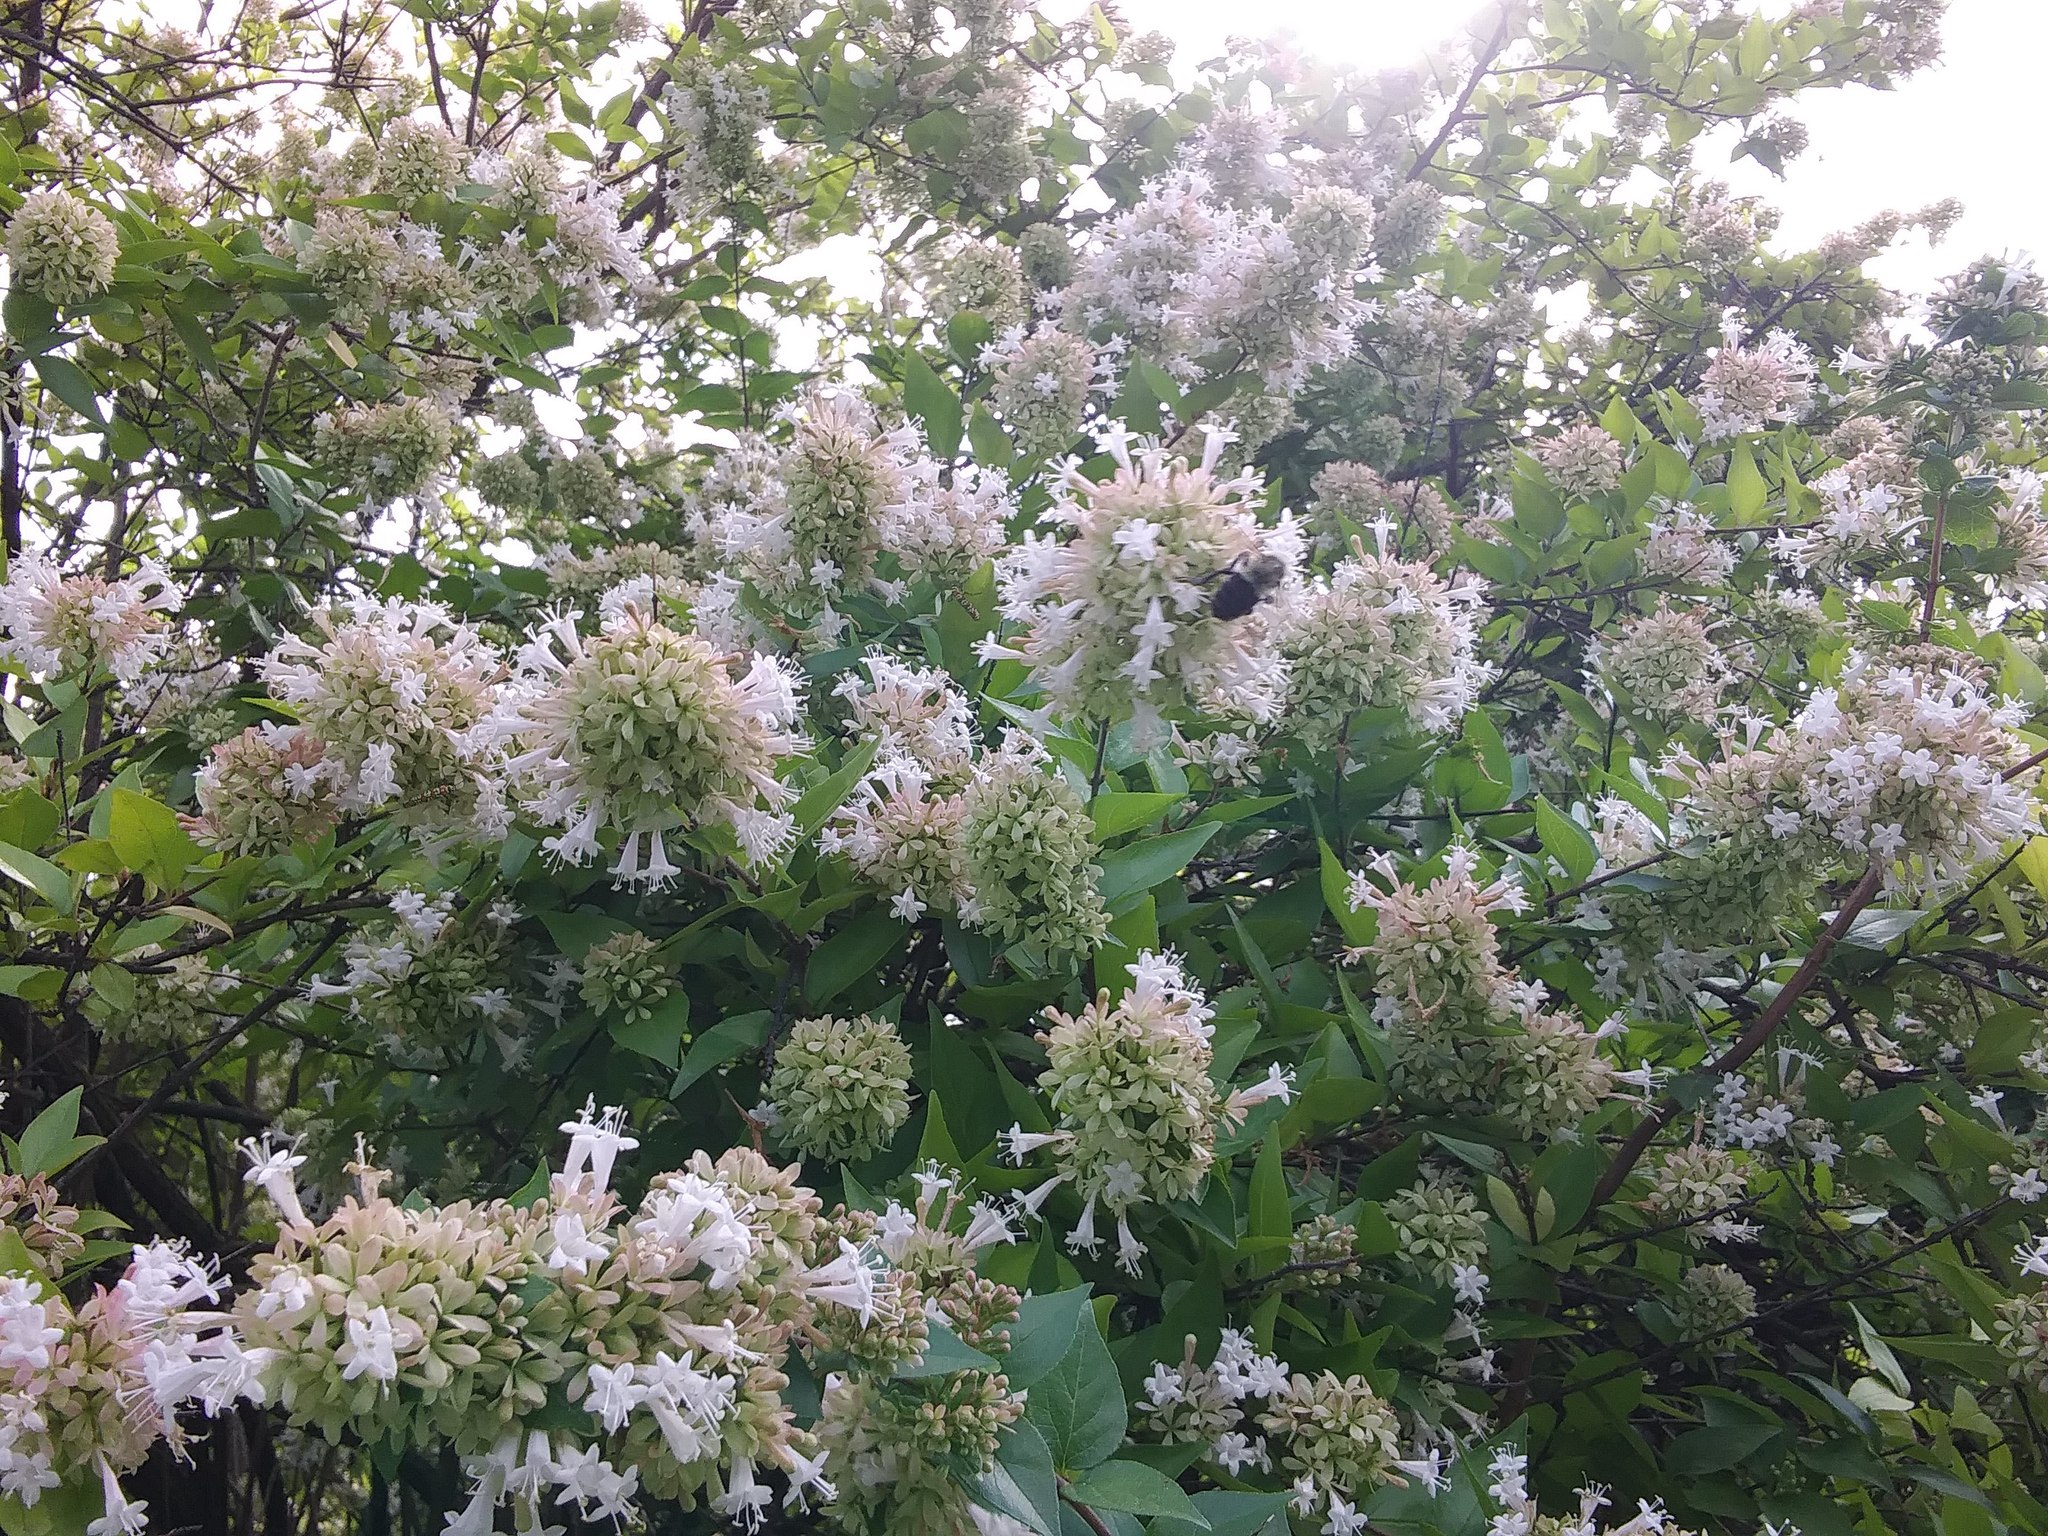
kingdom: Animalia
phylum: Arthropoda
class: Insecta
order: Hymenoptera
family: Apidae
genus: Bombus
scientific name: Bombus impatiens
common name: Common eastern bumble bee
